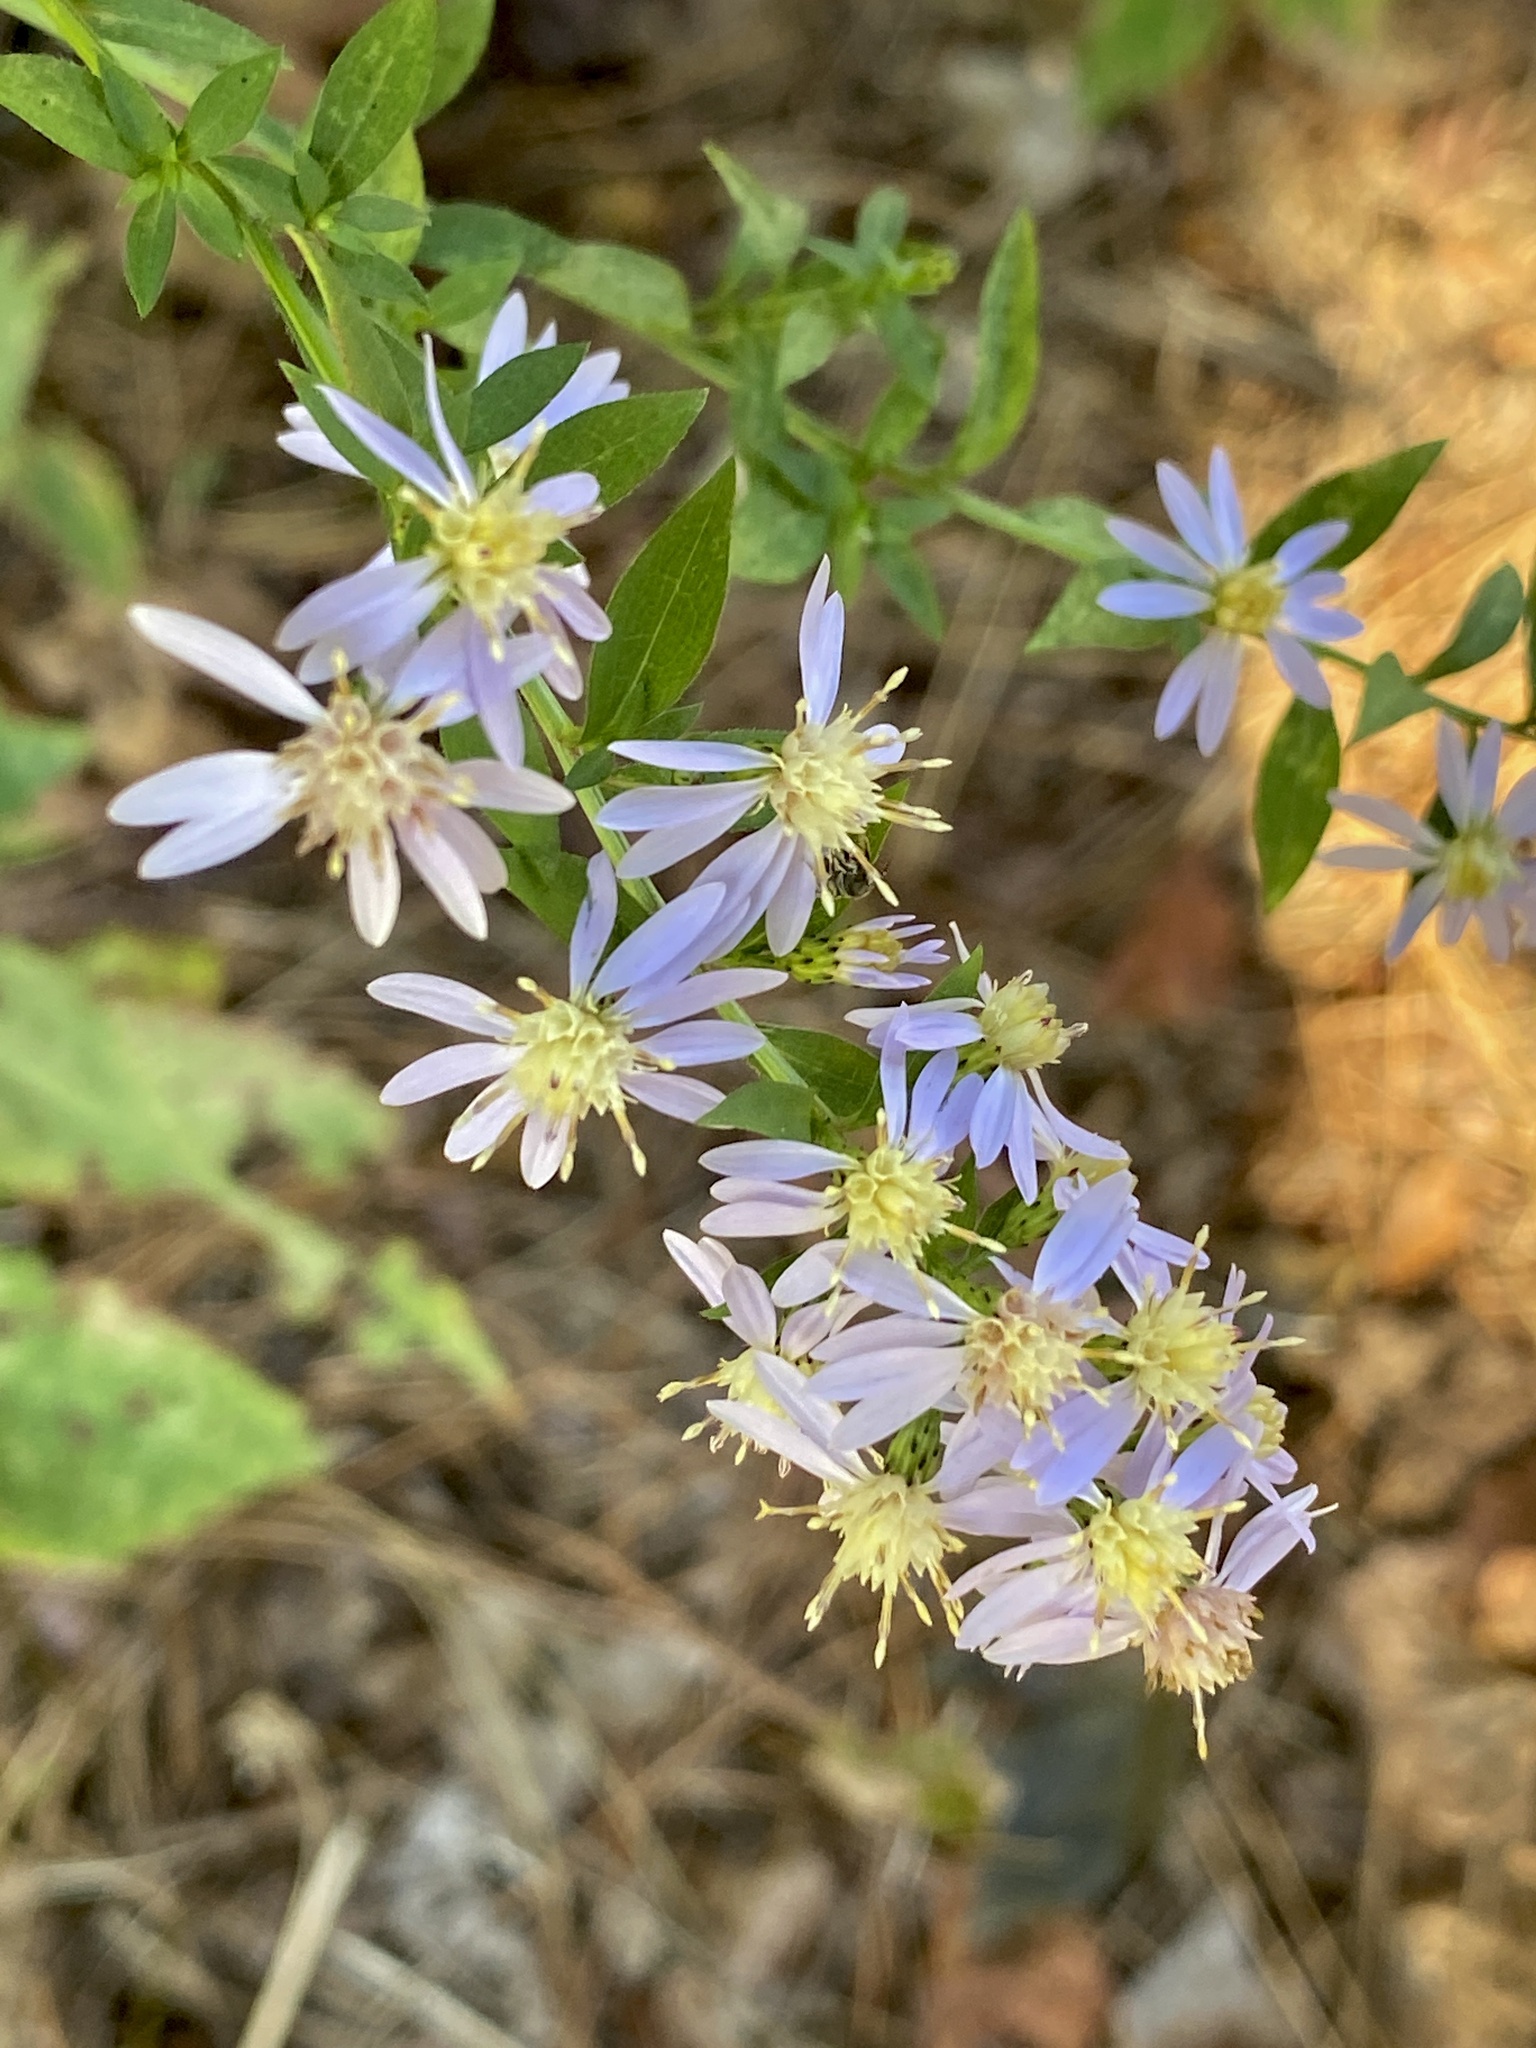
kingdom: Plantae
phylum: Tracheophyta
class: Magnoliopsida
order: Asterales
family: Asteraceae
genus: Symphyotrichum
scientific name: Symphyotrichum cordifolium
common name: Beeweed
